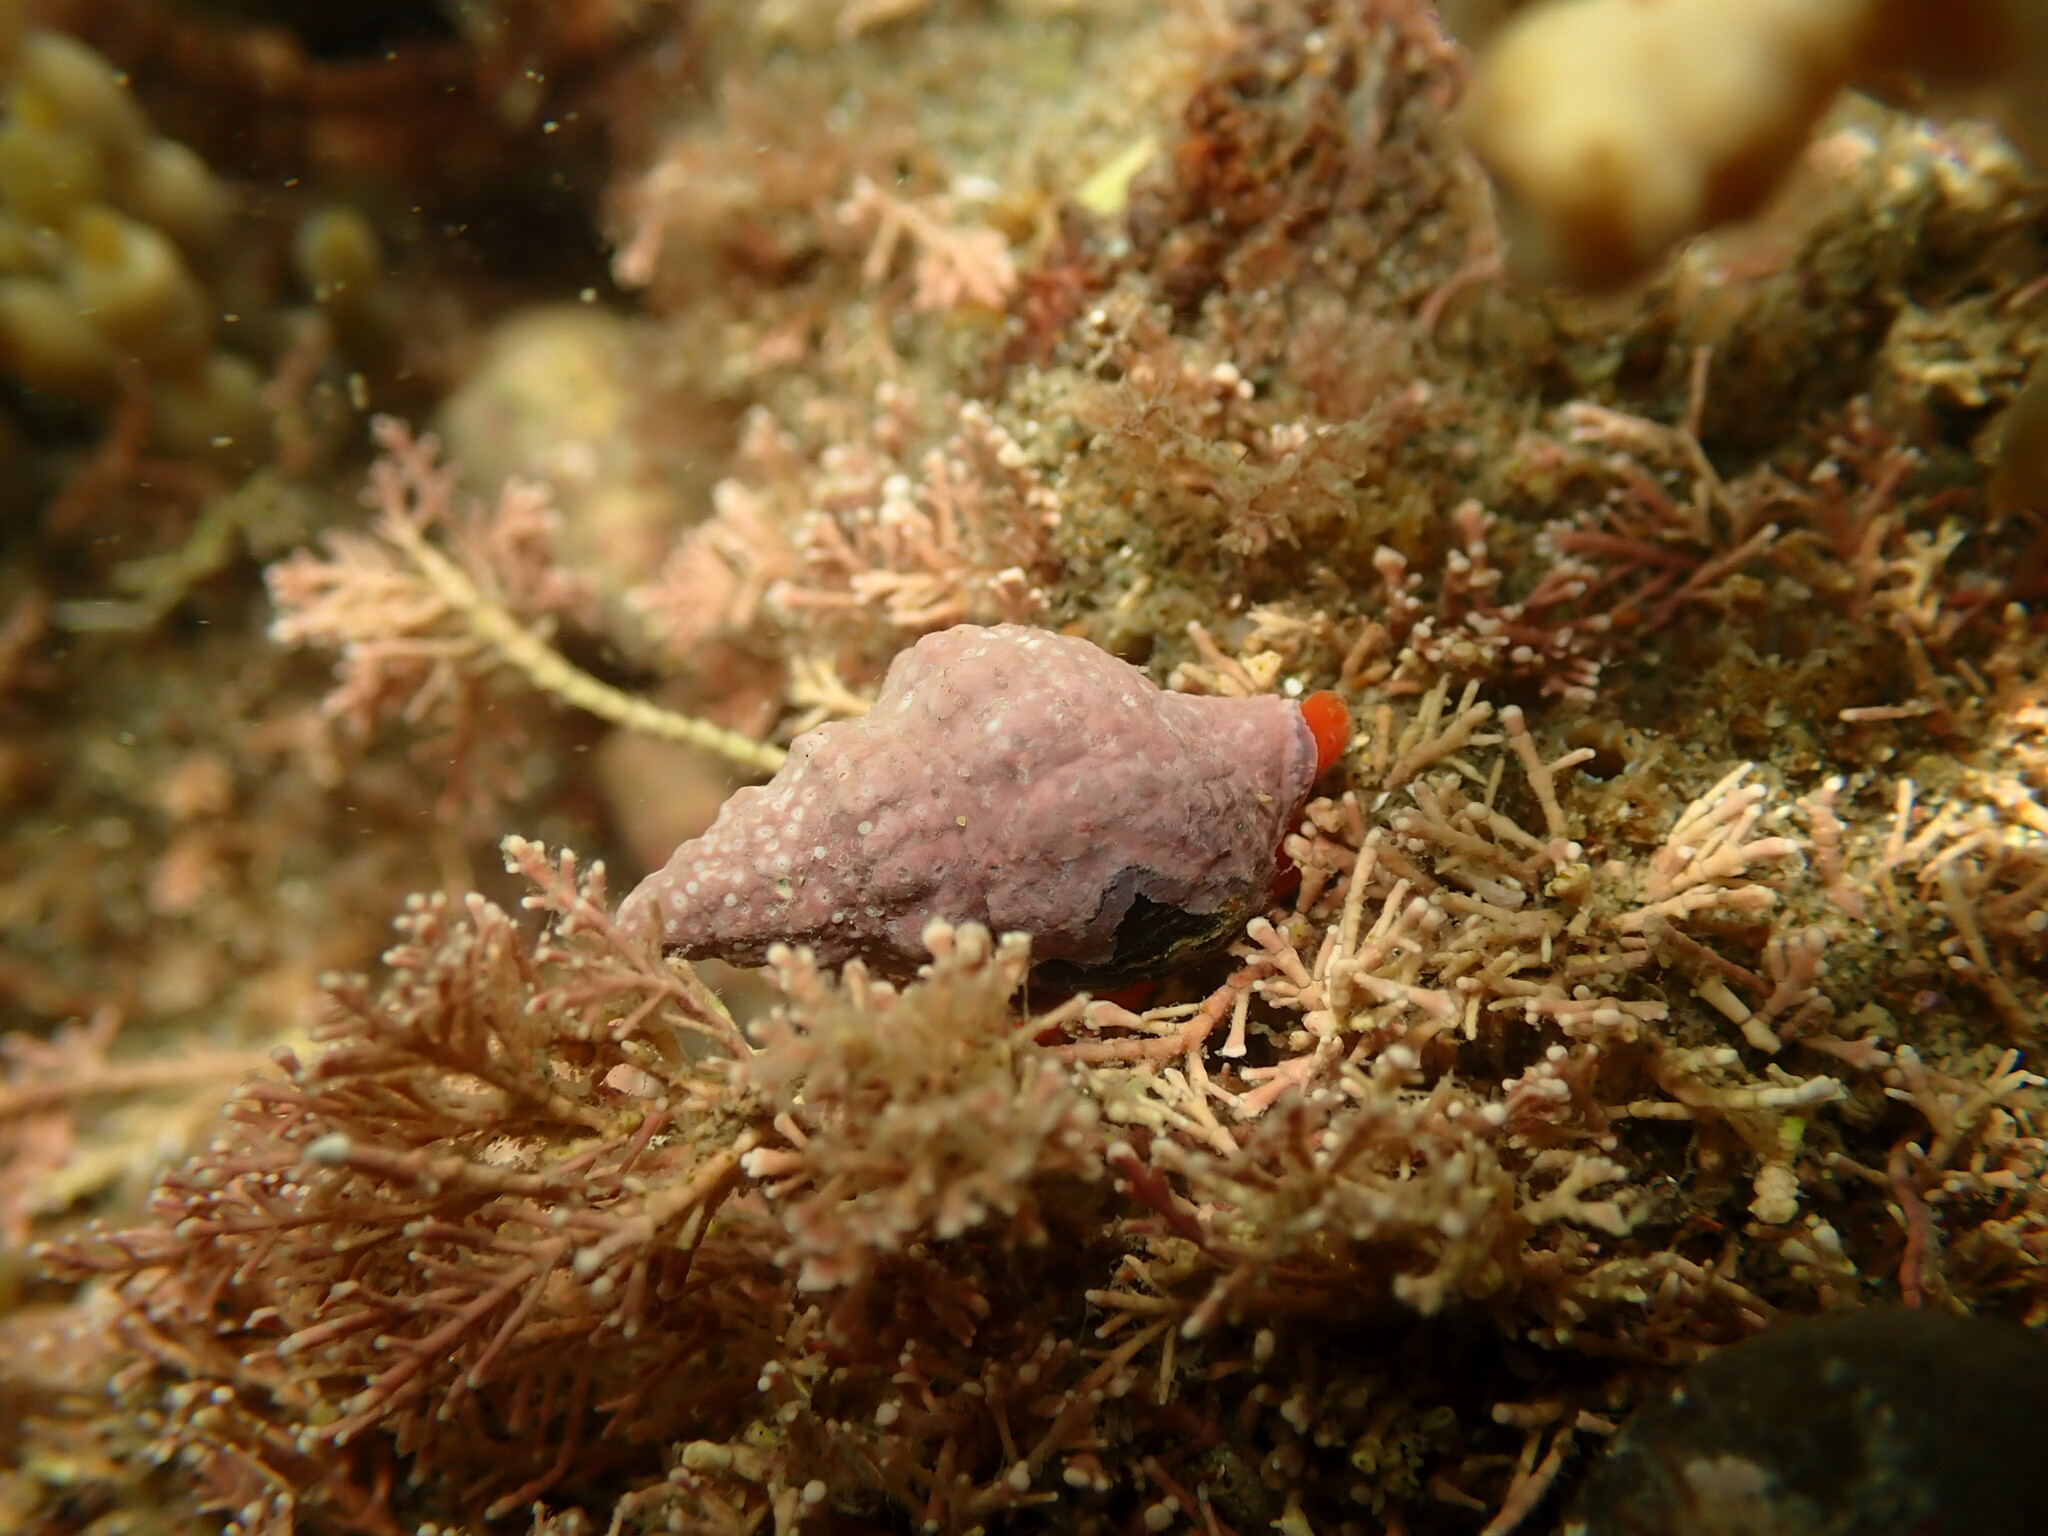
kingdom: Animalia
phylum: Mollusca
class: Gastropoda
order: Neogastropoda
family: Fasciolariidae
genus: Taron
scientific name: Taron dubius
